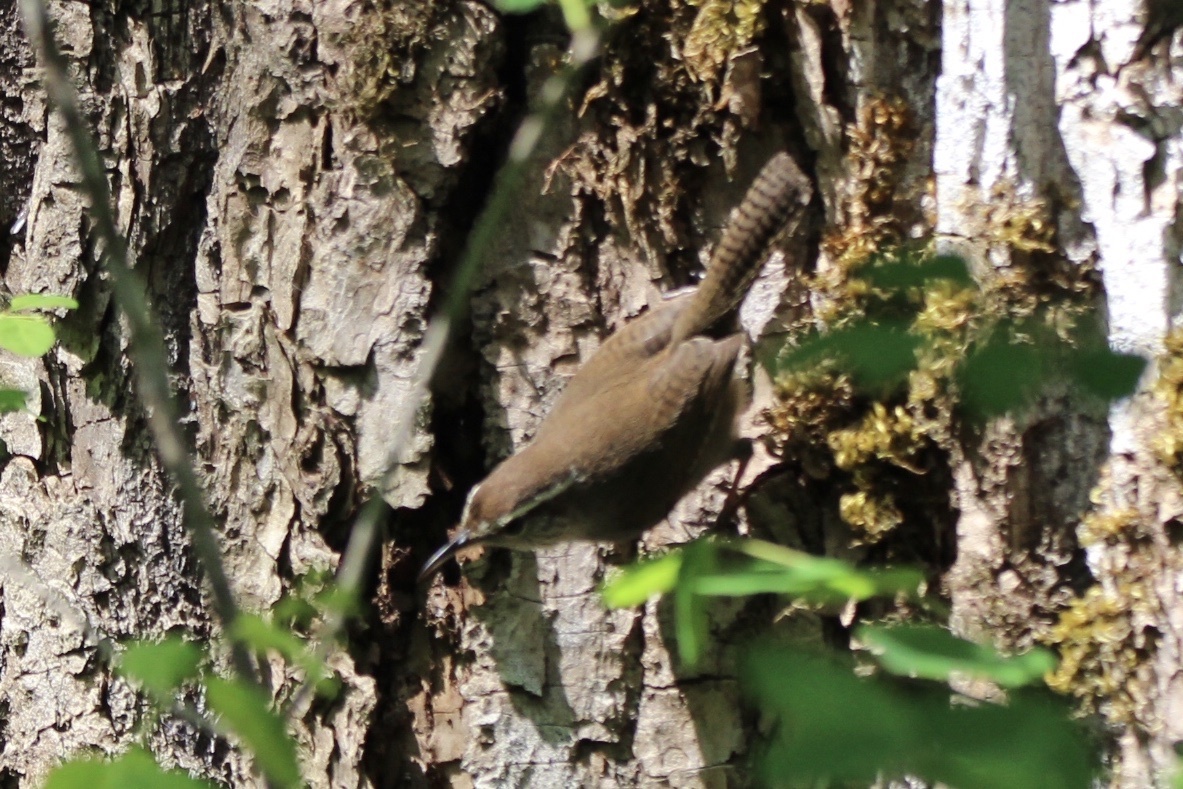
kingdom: Animalia
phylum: Chordata
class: Aves
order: Passeriformes
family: Troglodytidae
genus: Thryomanes
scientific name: Thryomanes bewickii
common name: Bewick's wren
